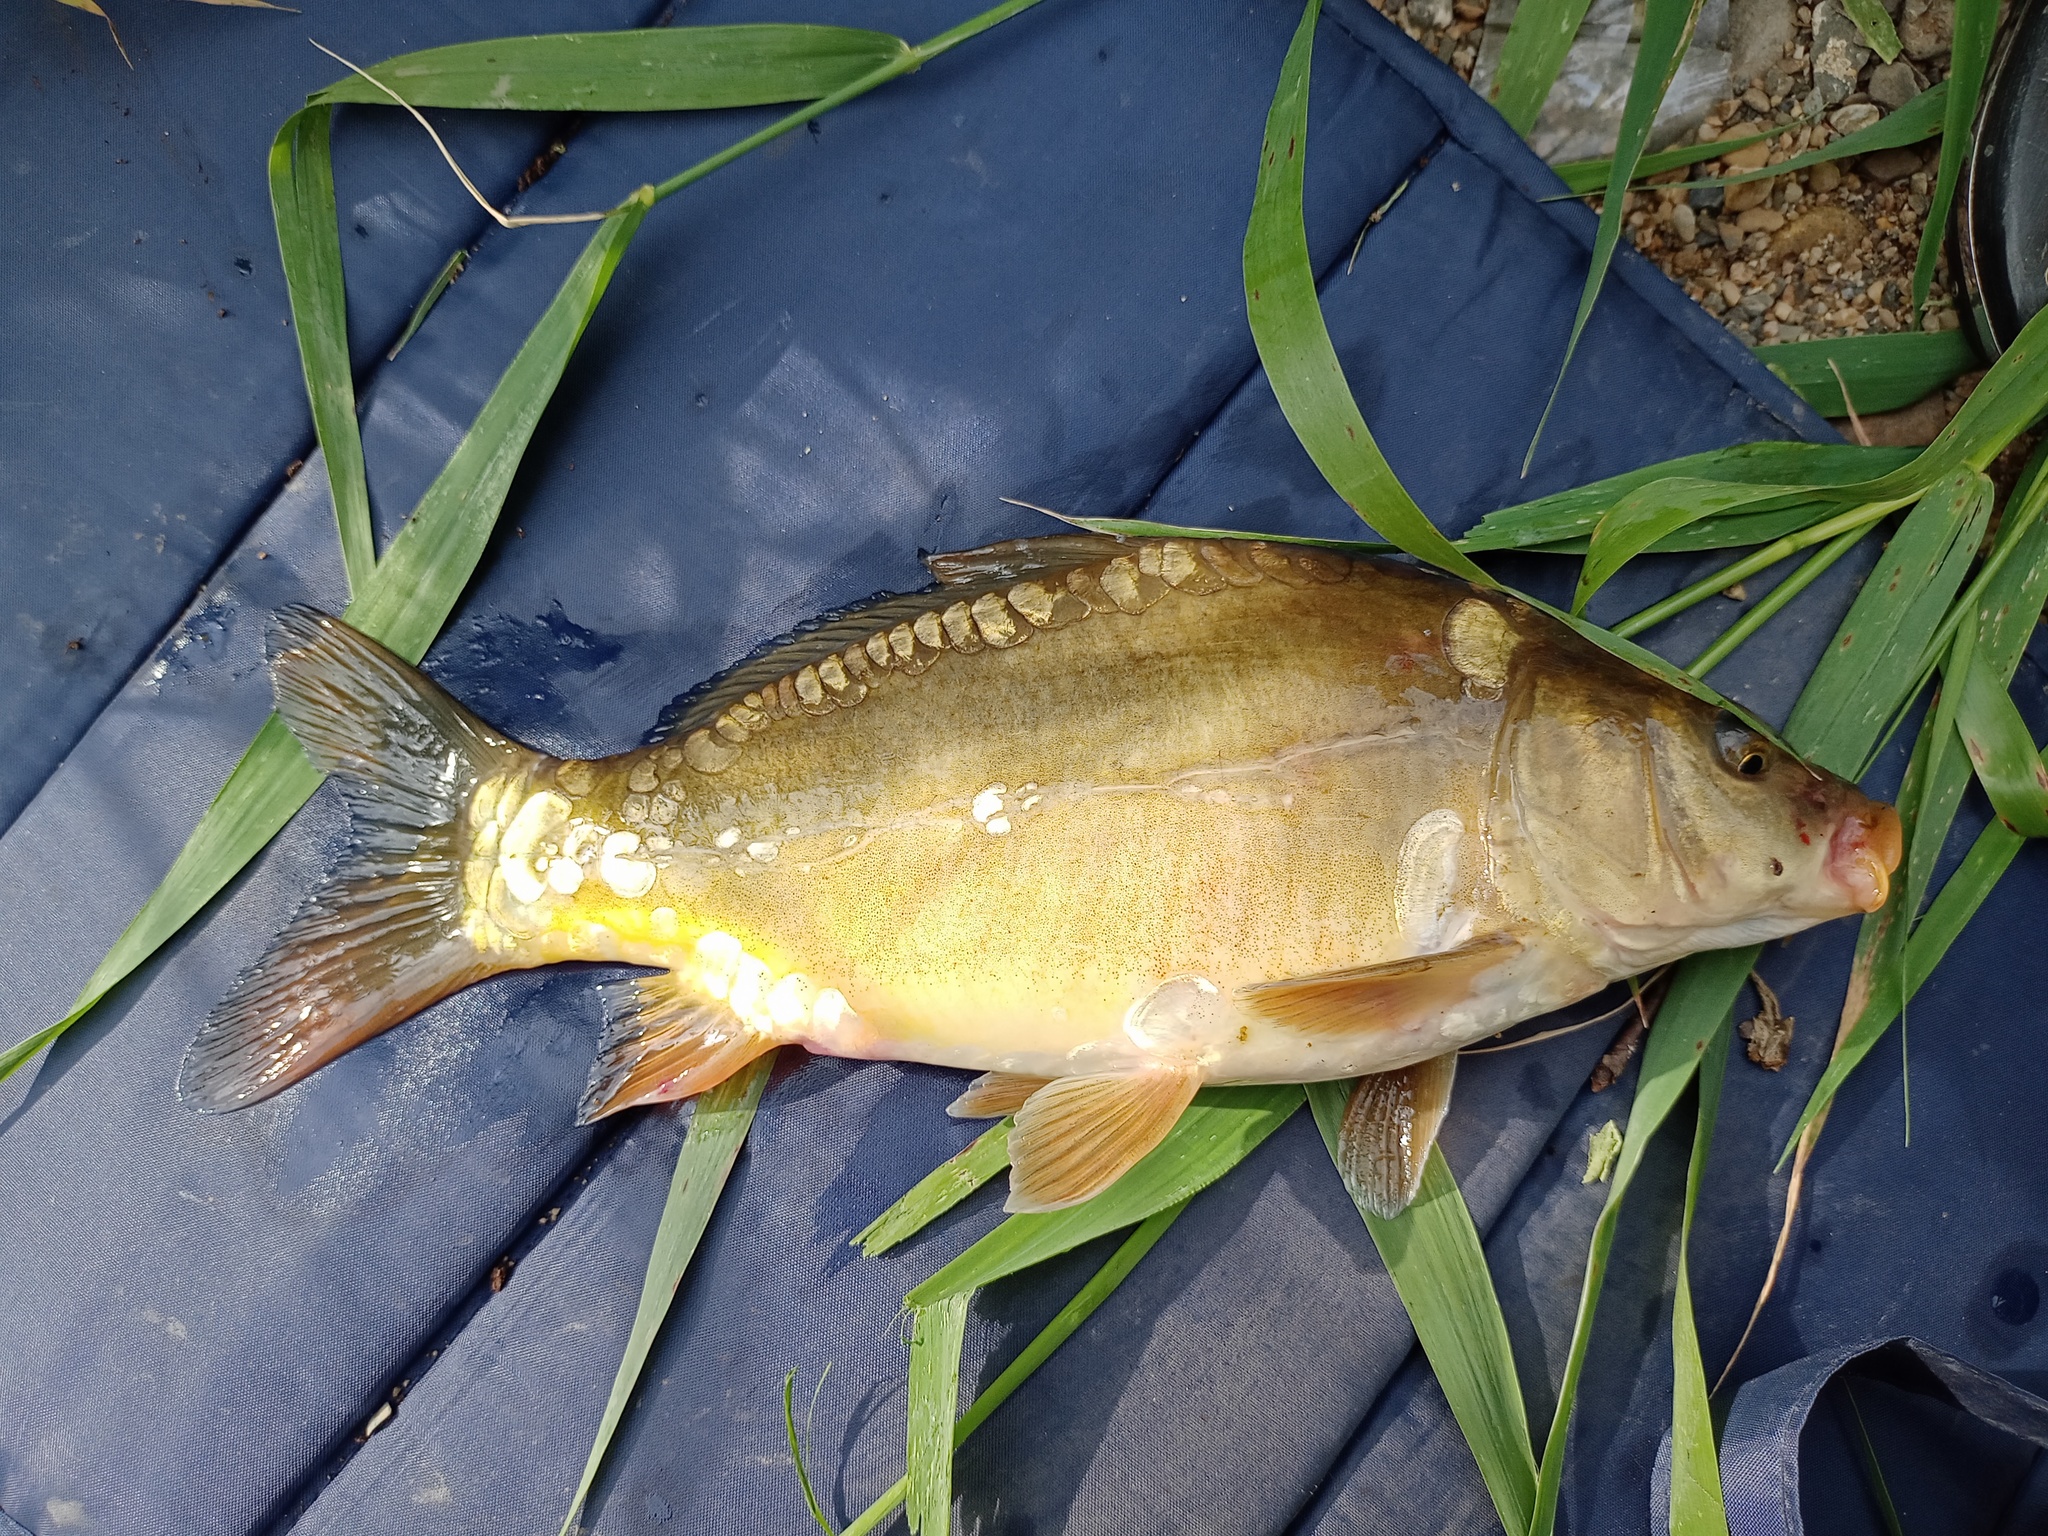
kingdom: Animalia
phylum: Chordata
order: Cypriniformes
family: Cyprinidae
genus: Cyprinus
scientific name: Cyprinus carpio
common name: Common carp
